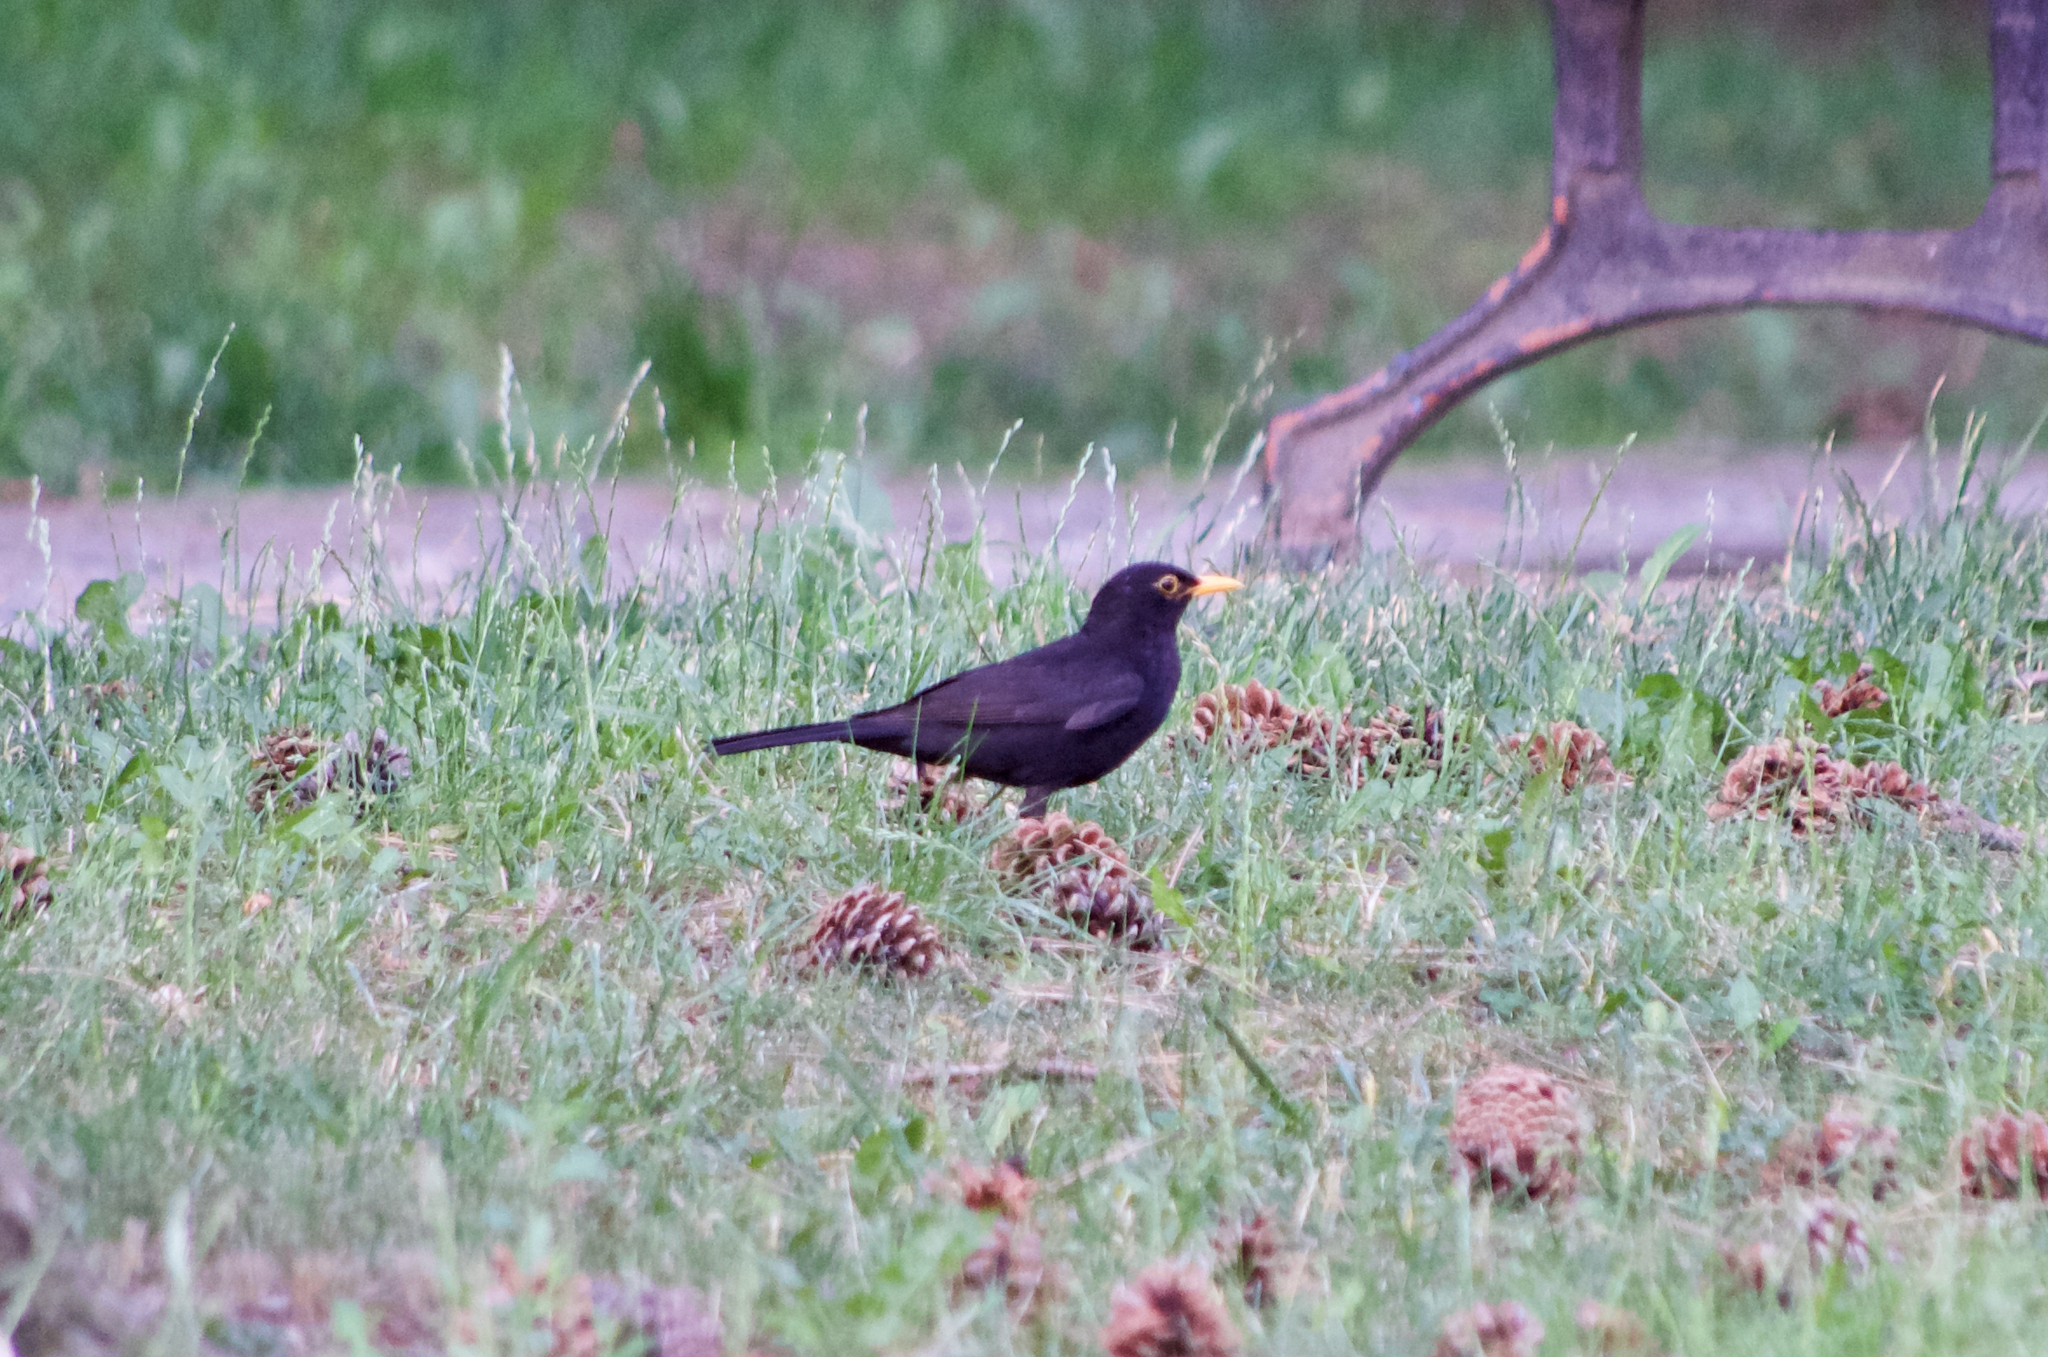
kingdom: Animalia
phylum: Chordata
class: Aves
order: Passeriformes
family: Turdidae
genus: Turdus
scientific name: Turdus merula
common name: Common blackbird
